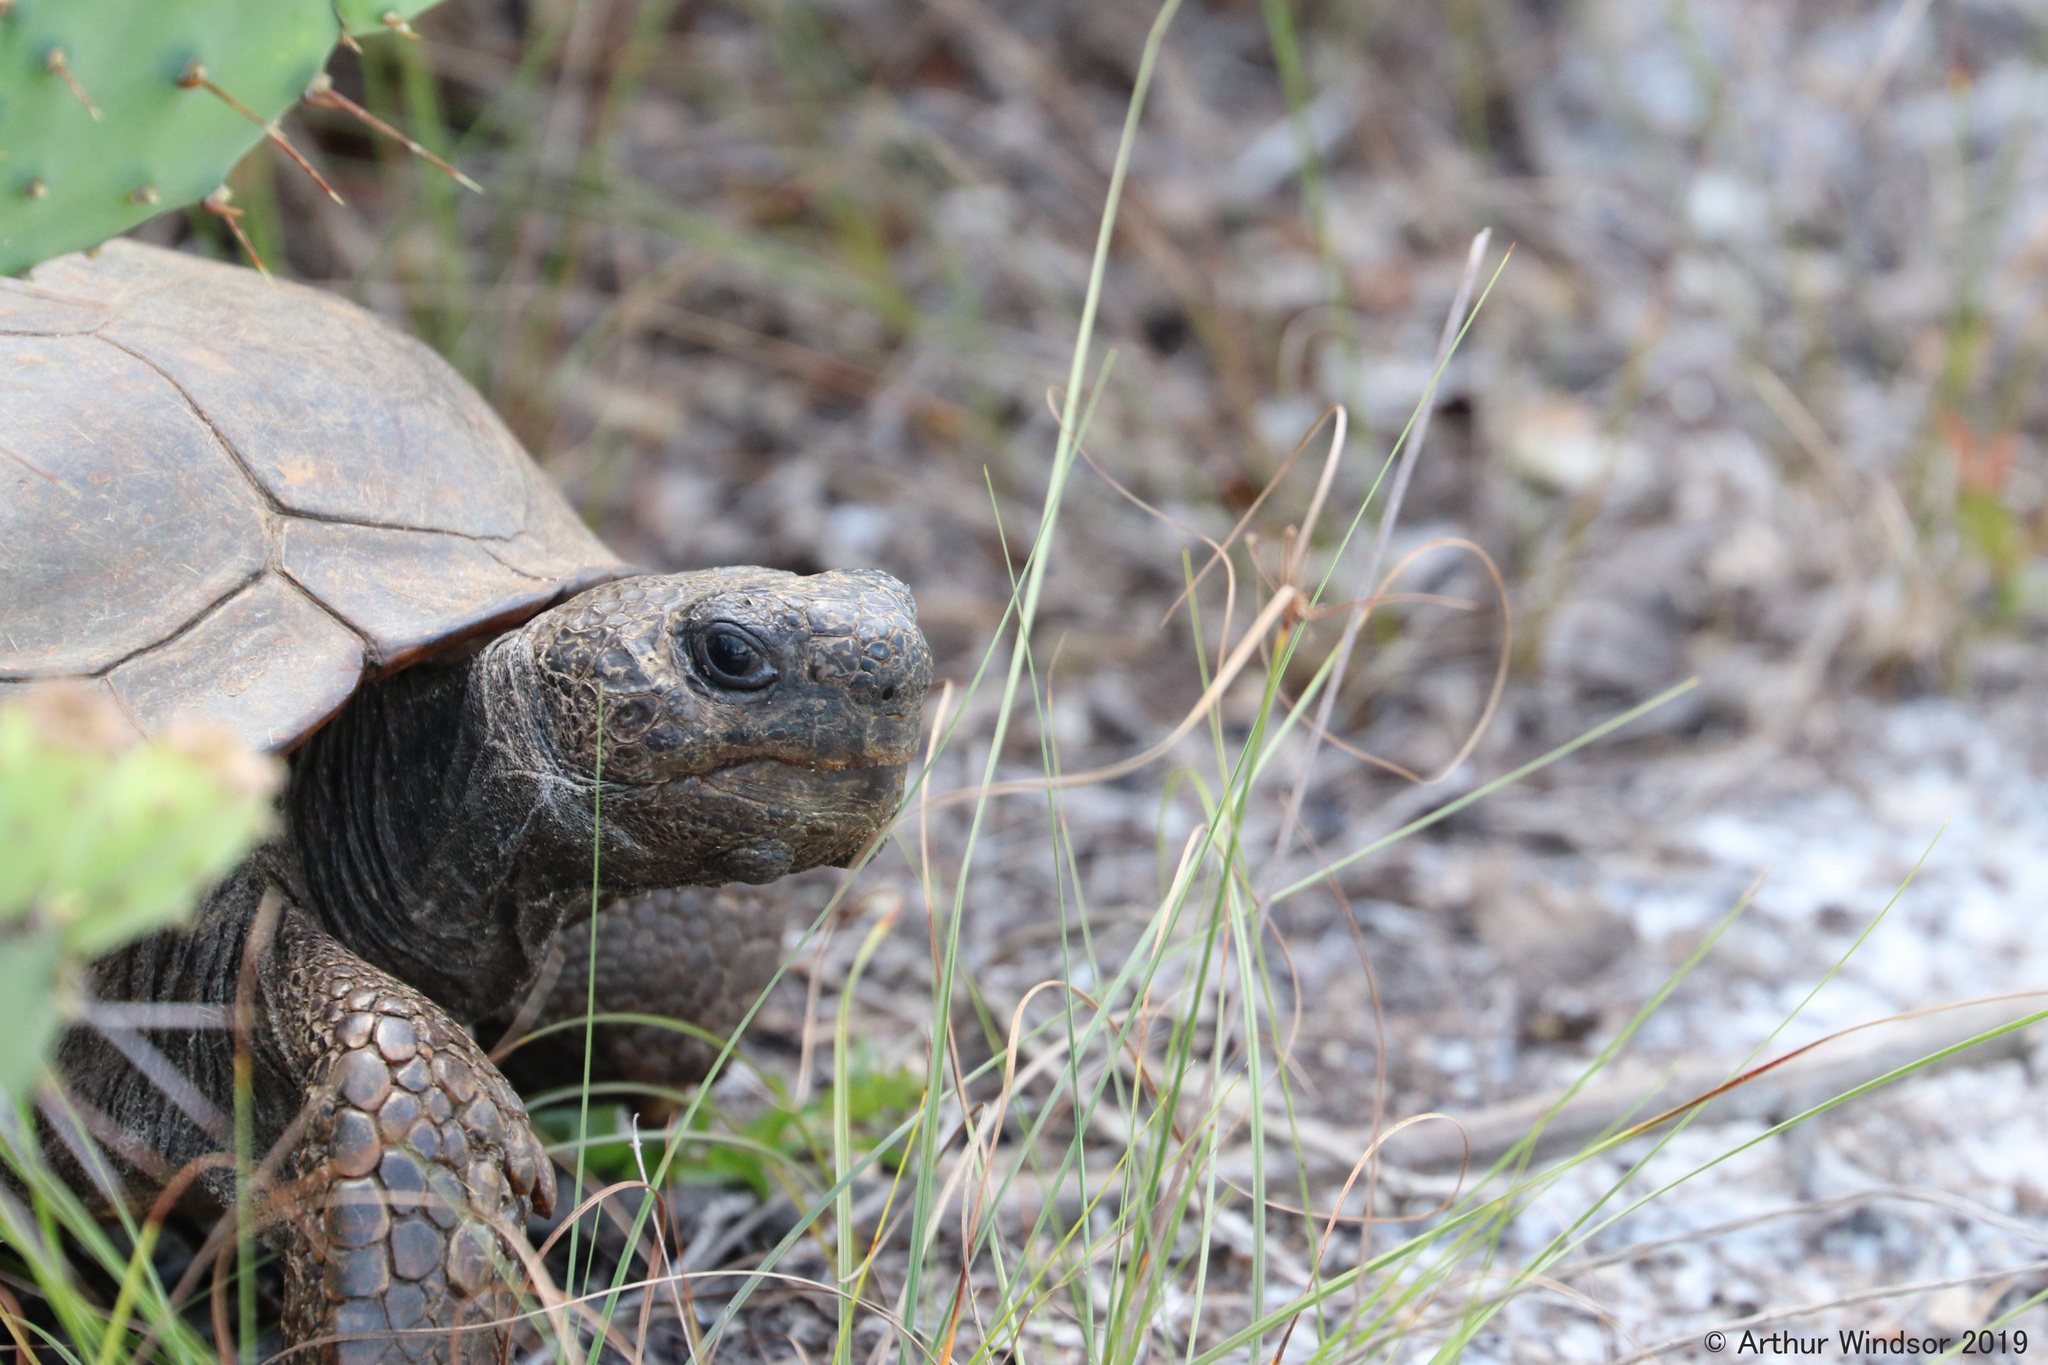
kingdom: Animalia
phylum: Chordata
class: Testudines
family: Testudinidae
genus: Gopherus
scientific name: Gopherus polyphemus
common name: Florida gopher tortoise
